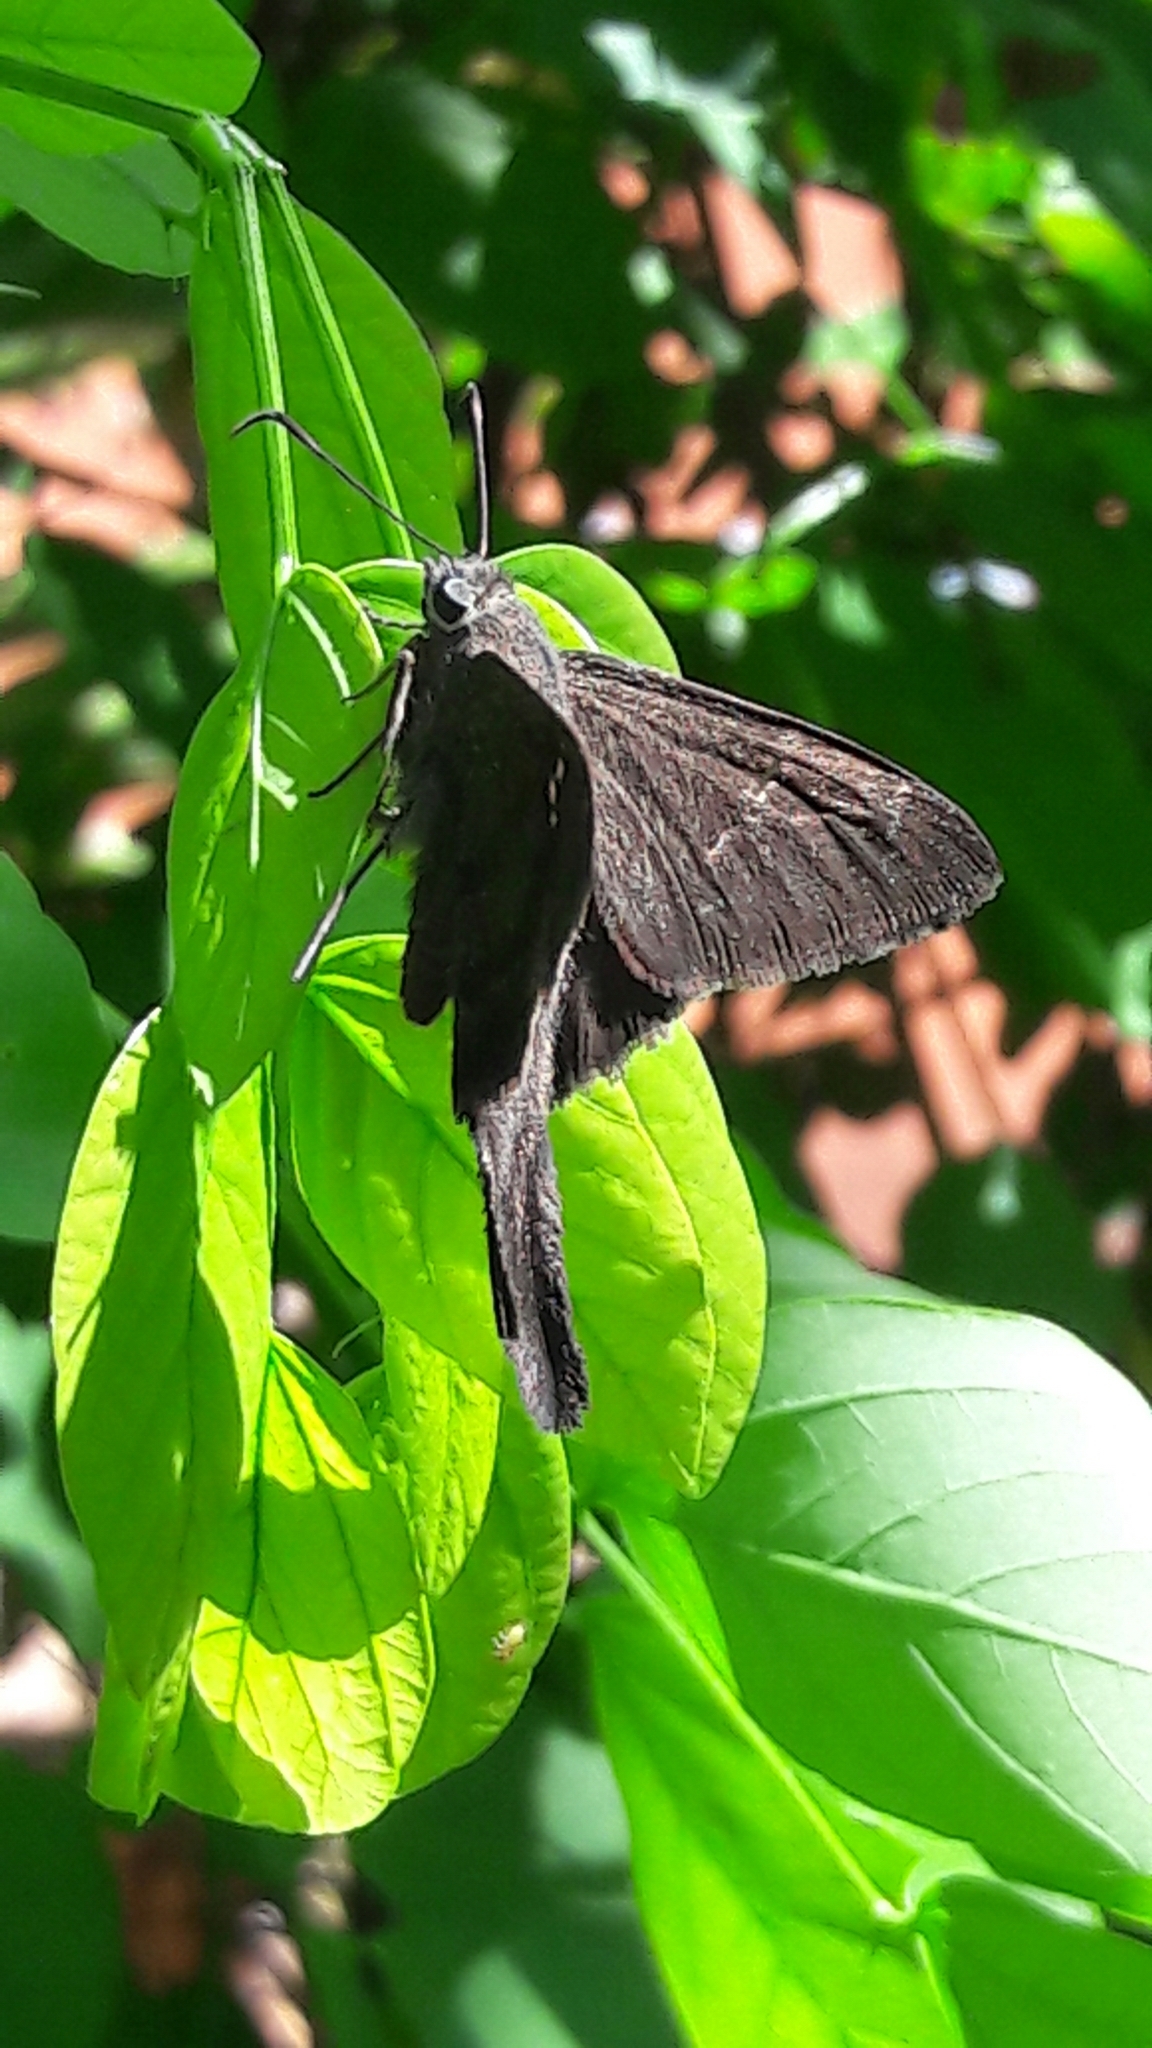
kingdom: Animalia
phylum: Arthropoda
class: Insecta
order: Lepidoptera
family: Hesperiidae
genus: Urbanus
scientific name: Urbanus procne
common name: Brown longtail
